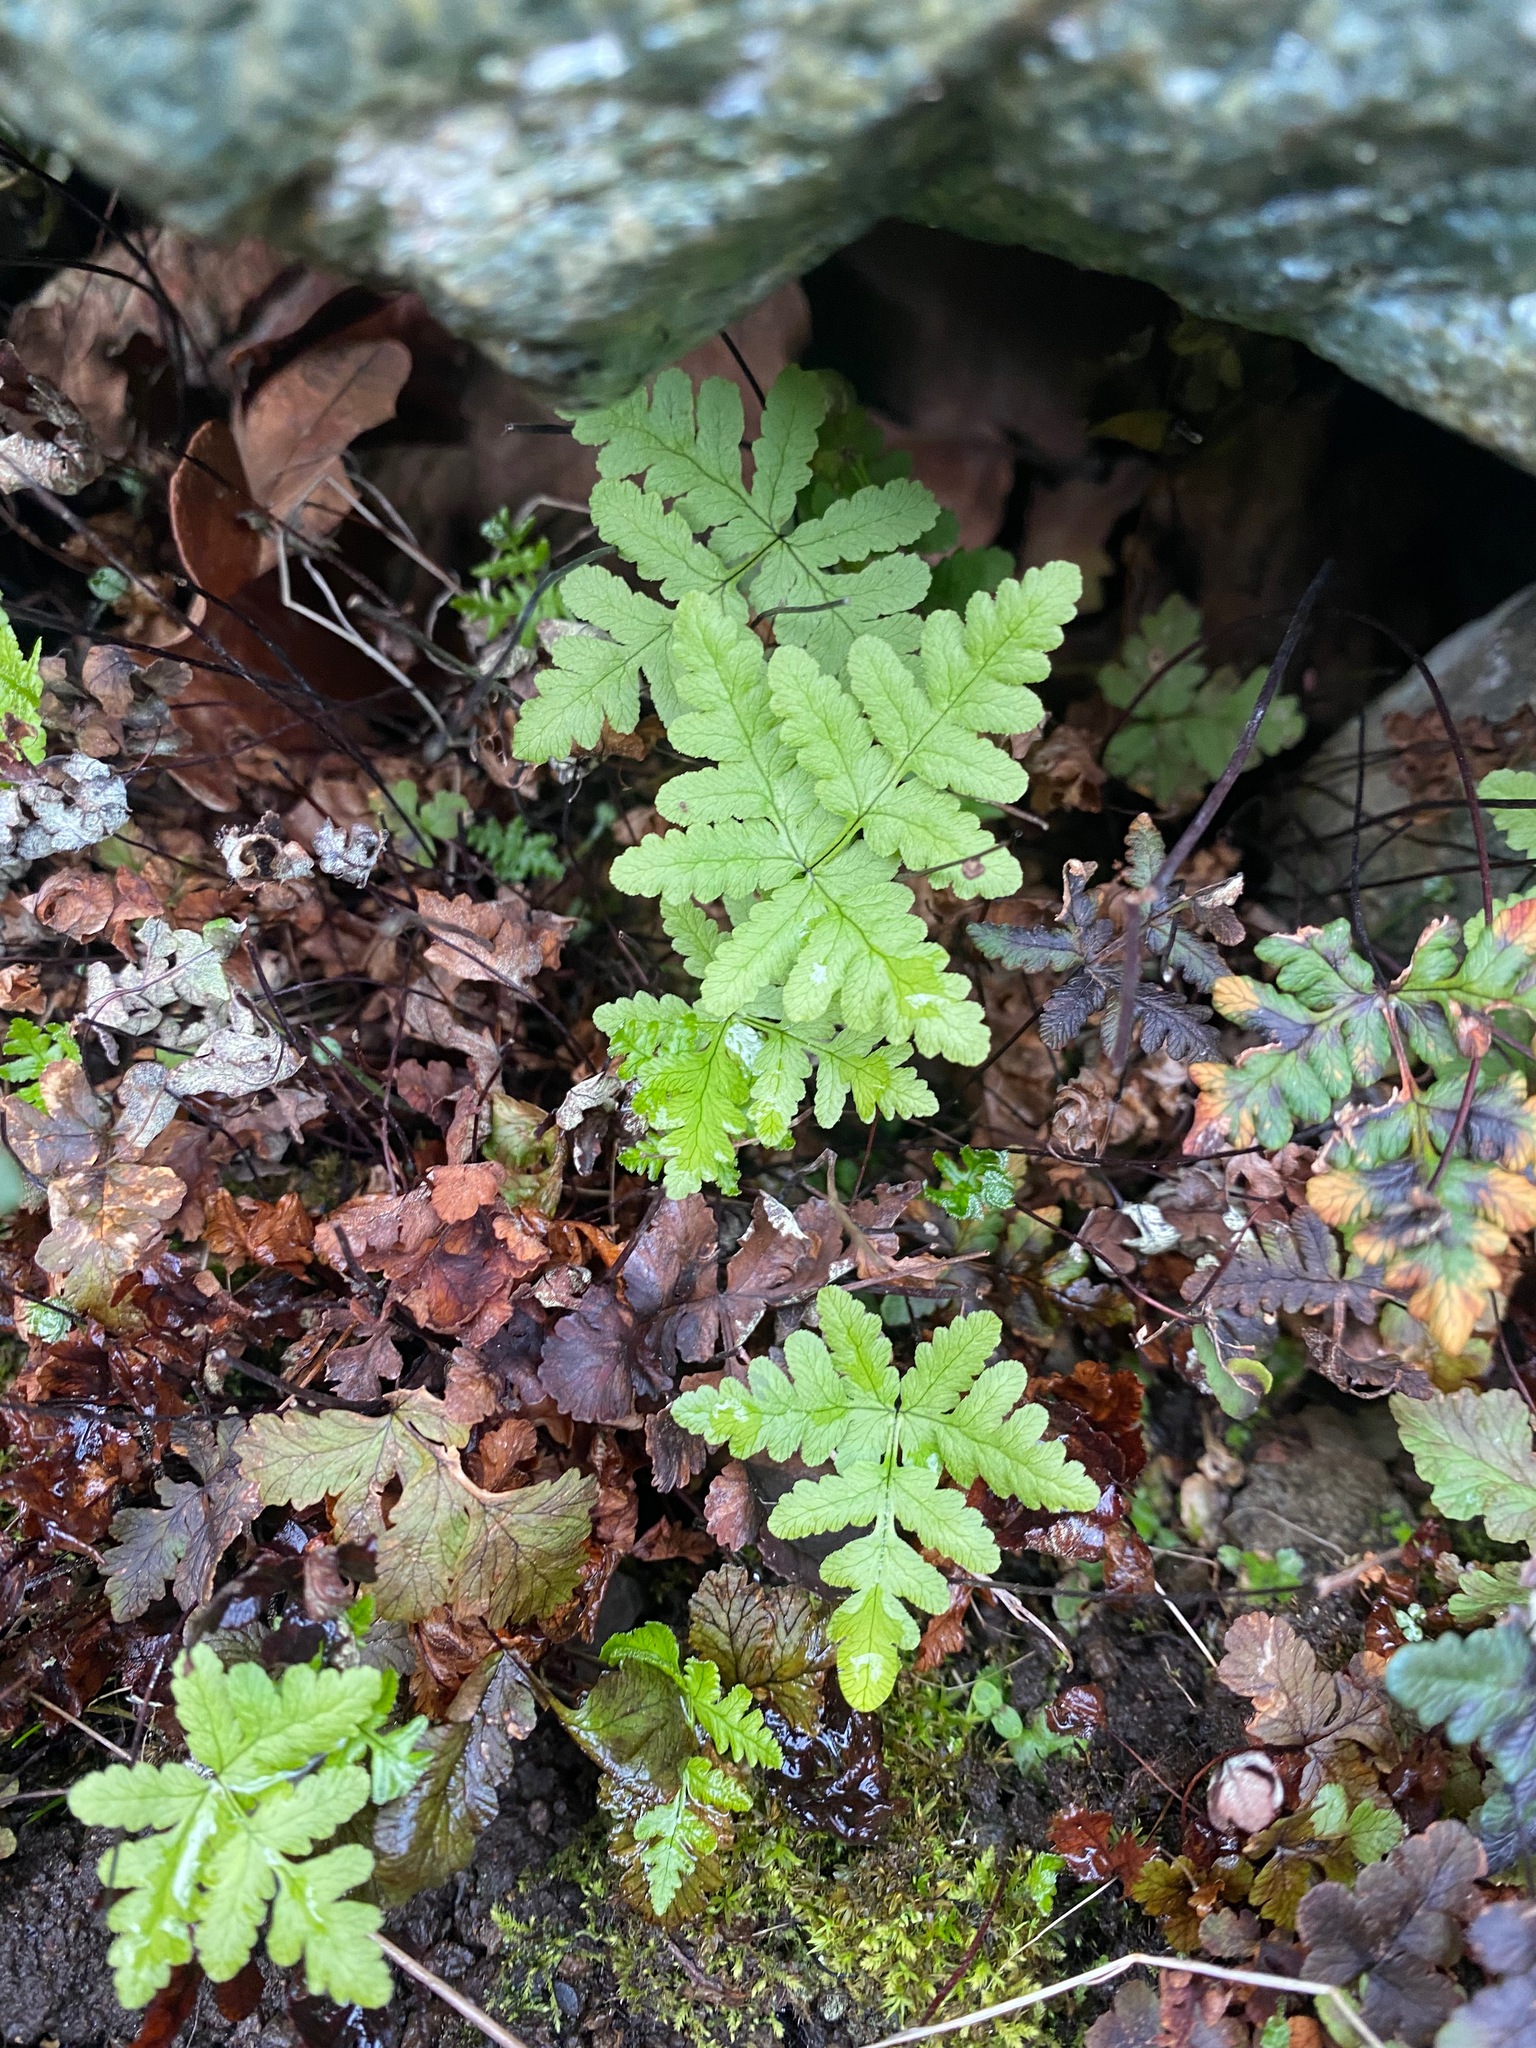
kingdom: Plantae
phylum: Tracheophyta
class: Polypodiopsida
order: Polypodiales
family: Pteridaceae
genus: Pentagramma
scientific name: Pentagramma triangularis
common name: Gold fern
